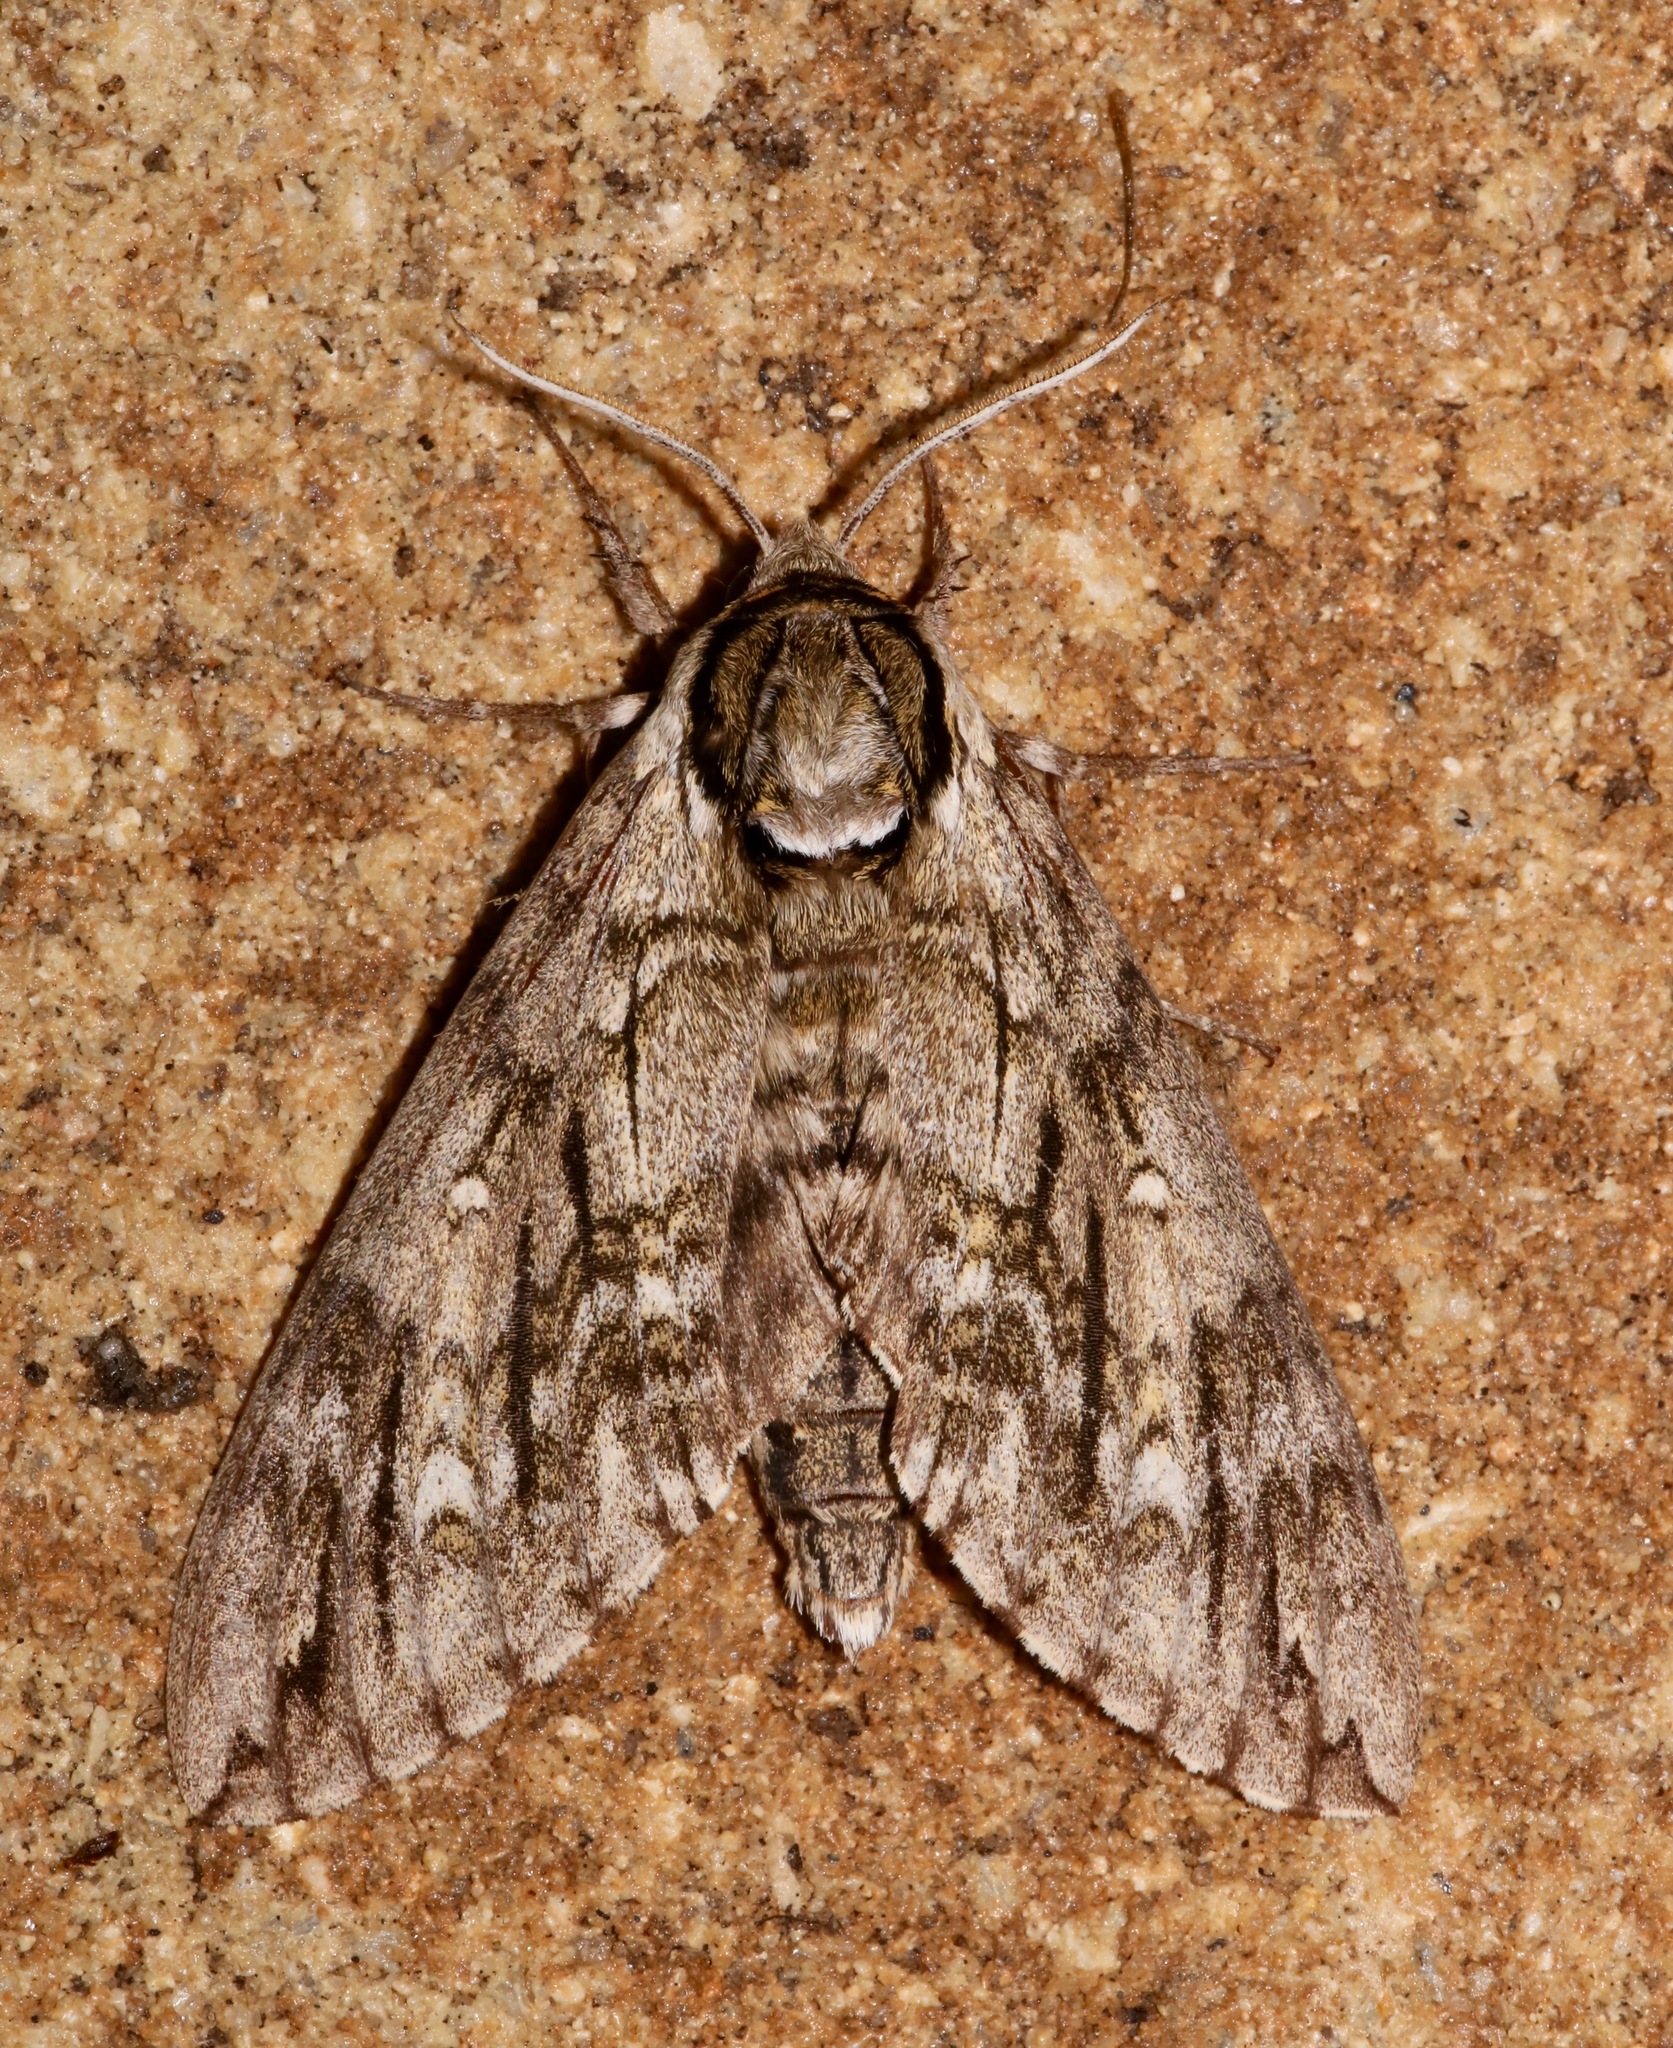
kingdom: Animalia
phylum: Arthropoda
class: Insecta
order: Lepidoptera
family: Sphingidae
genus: Ceratomia
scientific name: Ceratomia undulosa
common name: Waved sphinx
